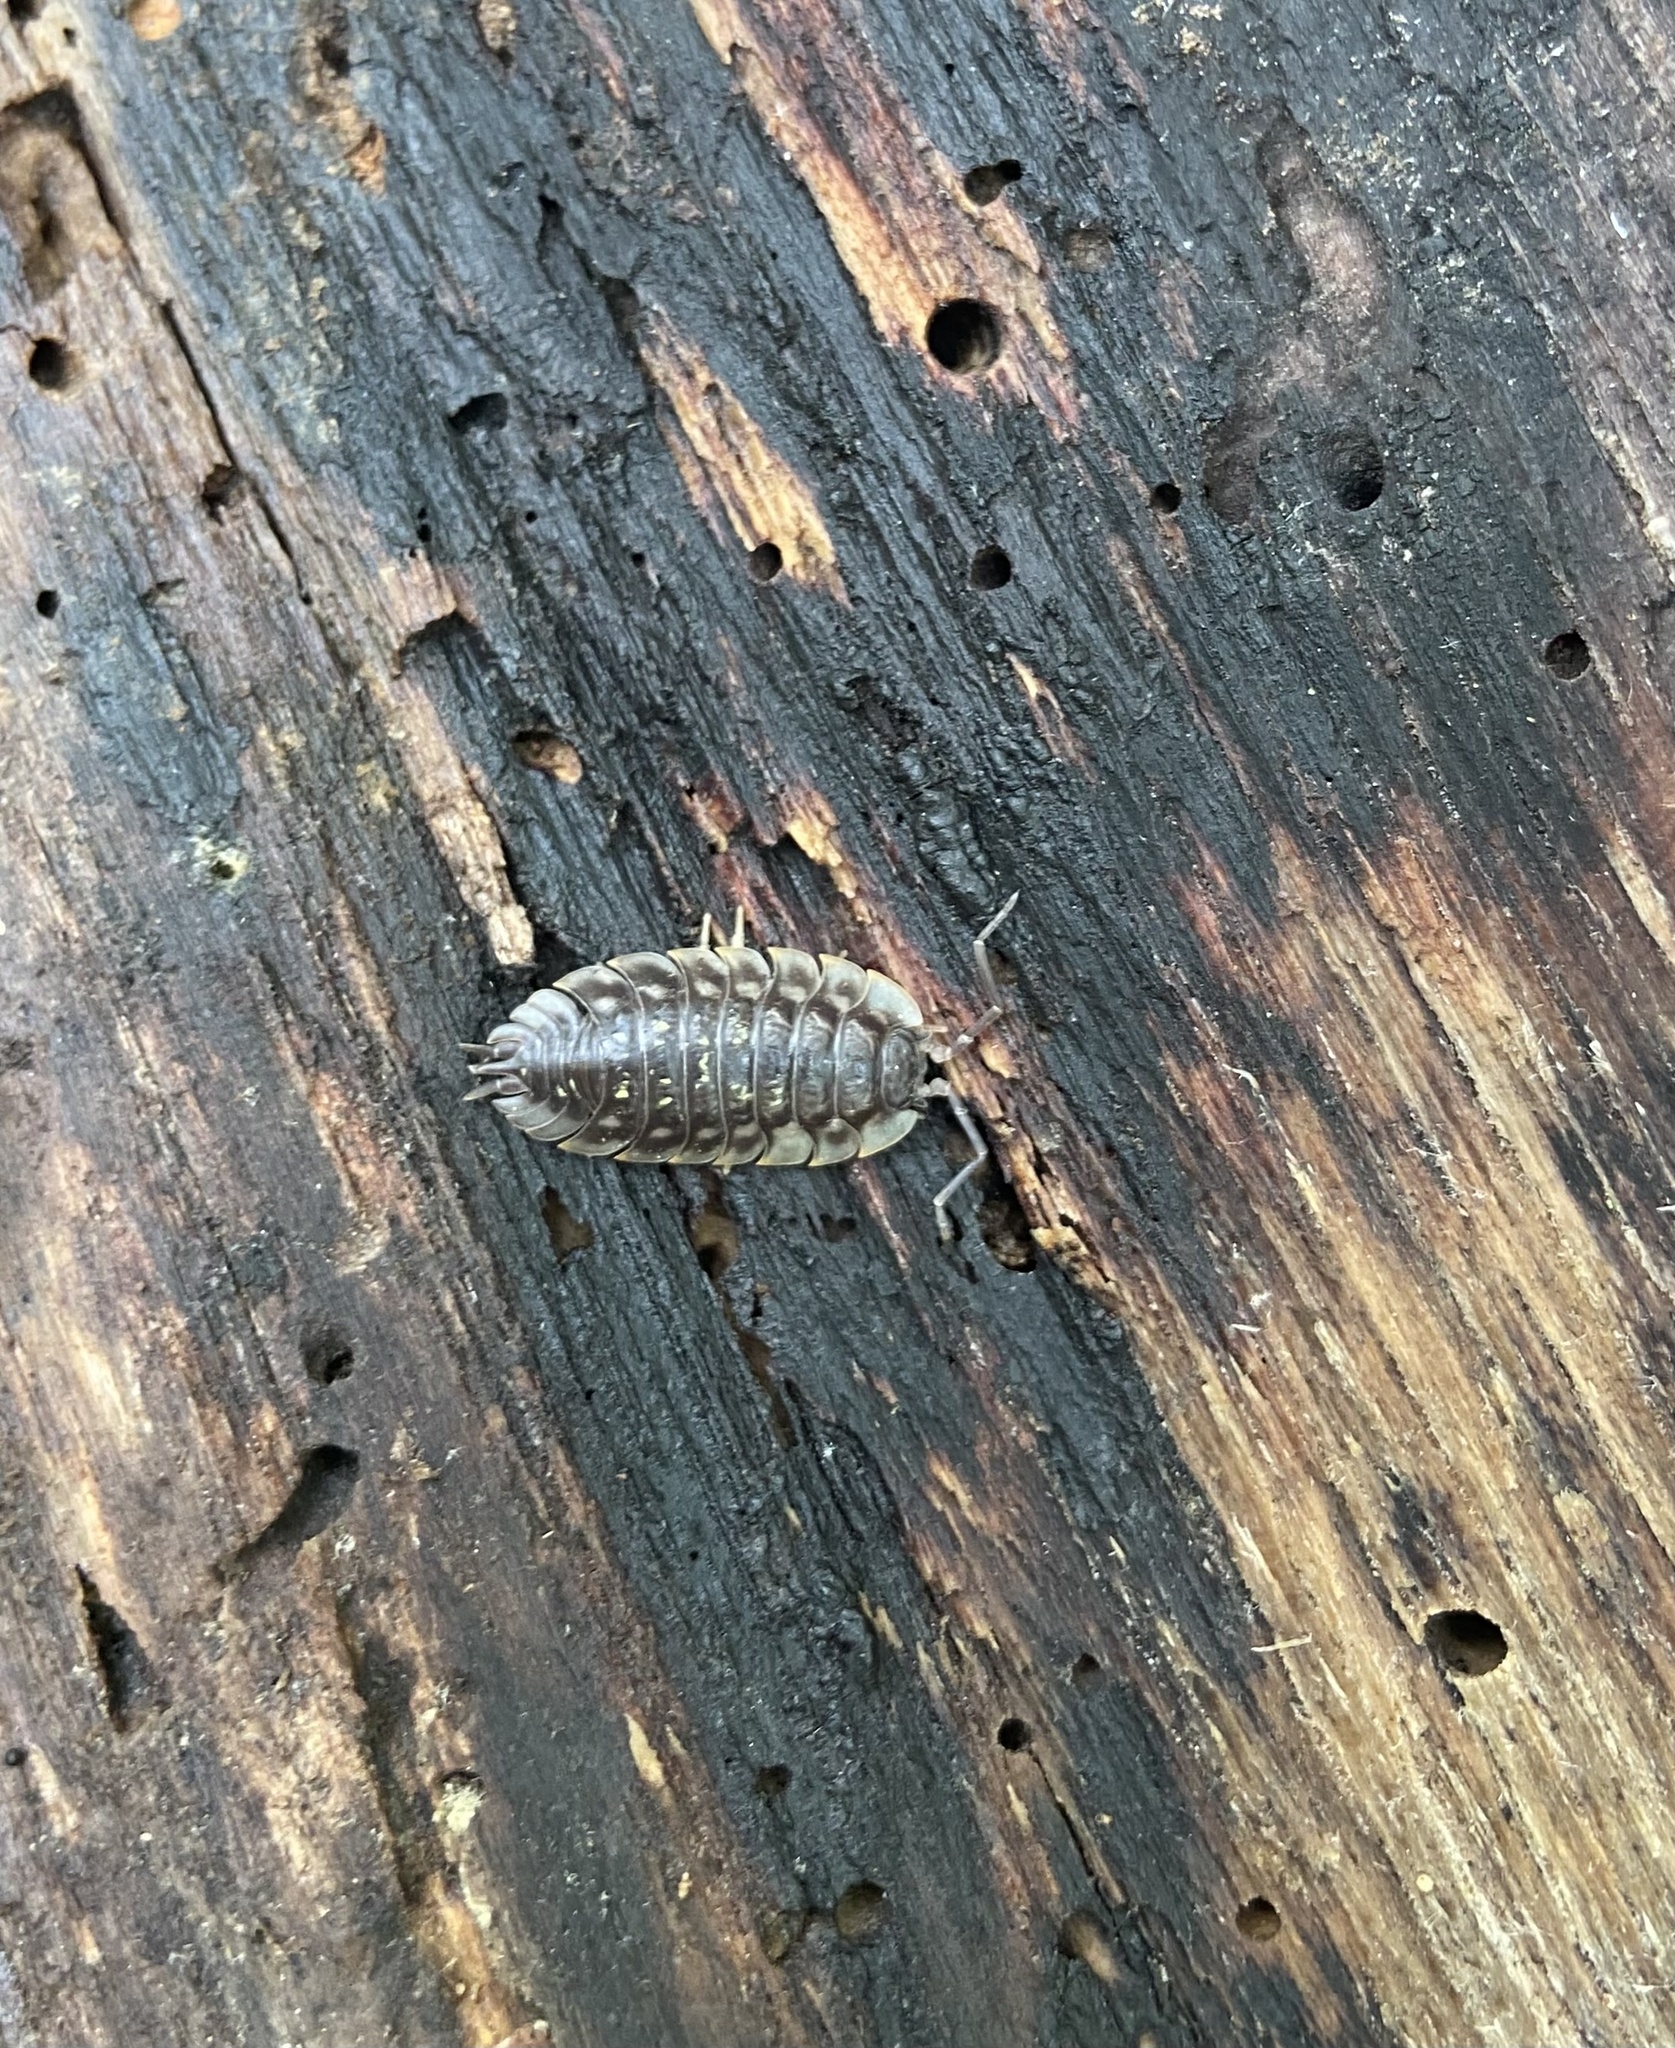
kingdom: Animalia
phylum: Arthropoda
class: Malacostraca
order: Isopoda
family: Oniscidae
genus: Oniscus
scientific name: Oniscus asellus
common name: Common shiny woodlouse
